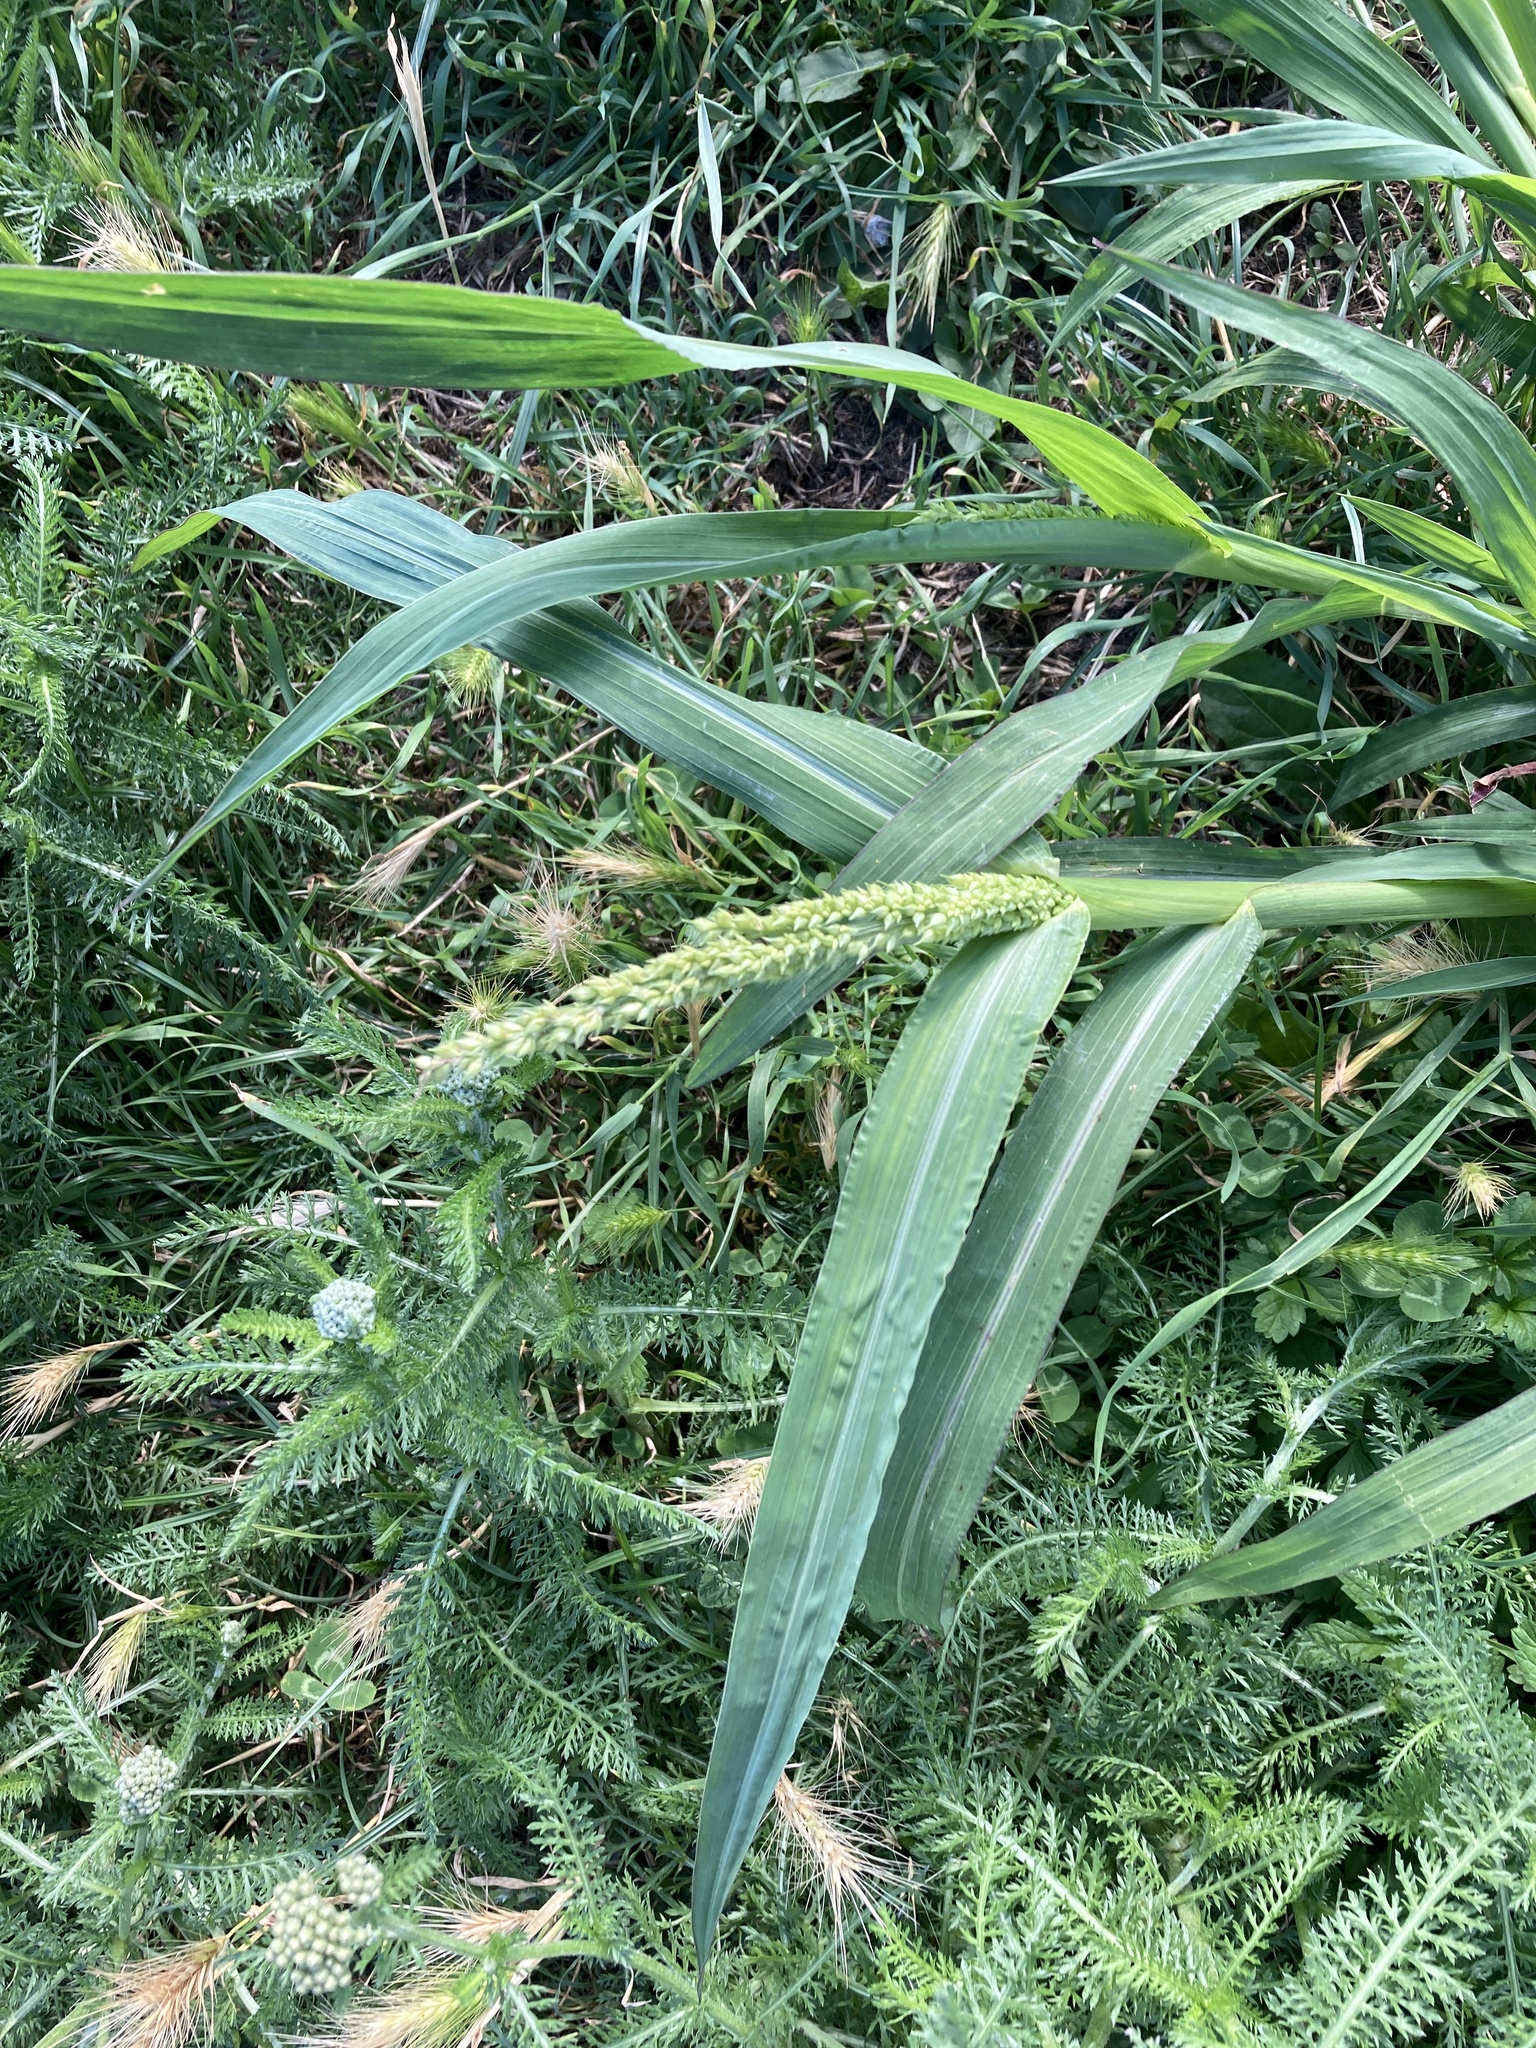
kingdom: Plantae
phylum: Tracheophyta
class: Liliopsida
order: Poales
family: Poaceae
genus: Echinochloa
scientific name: Echinochloa crus-galli
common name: Cockspur
